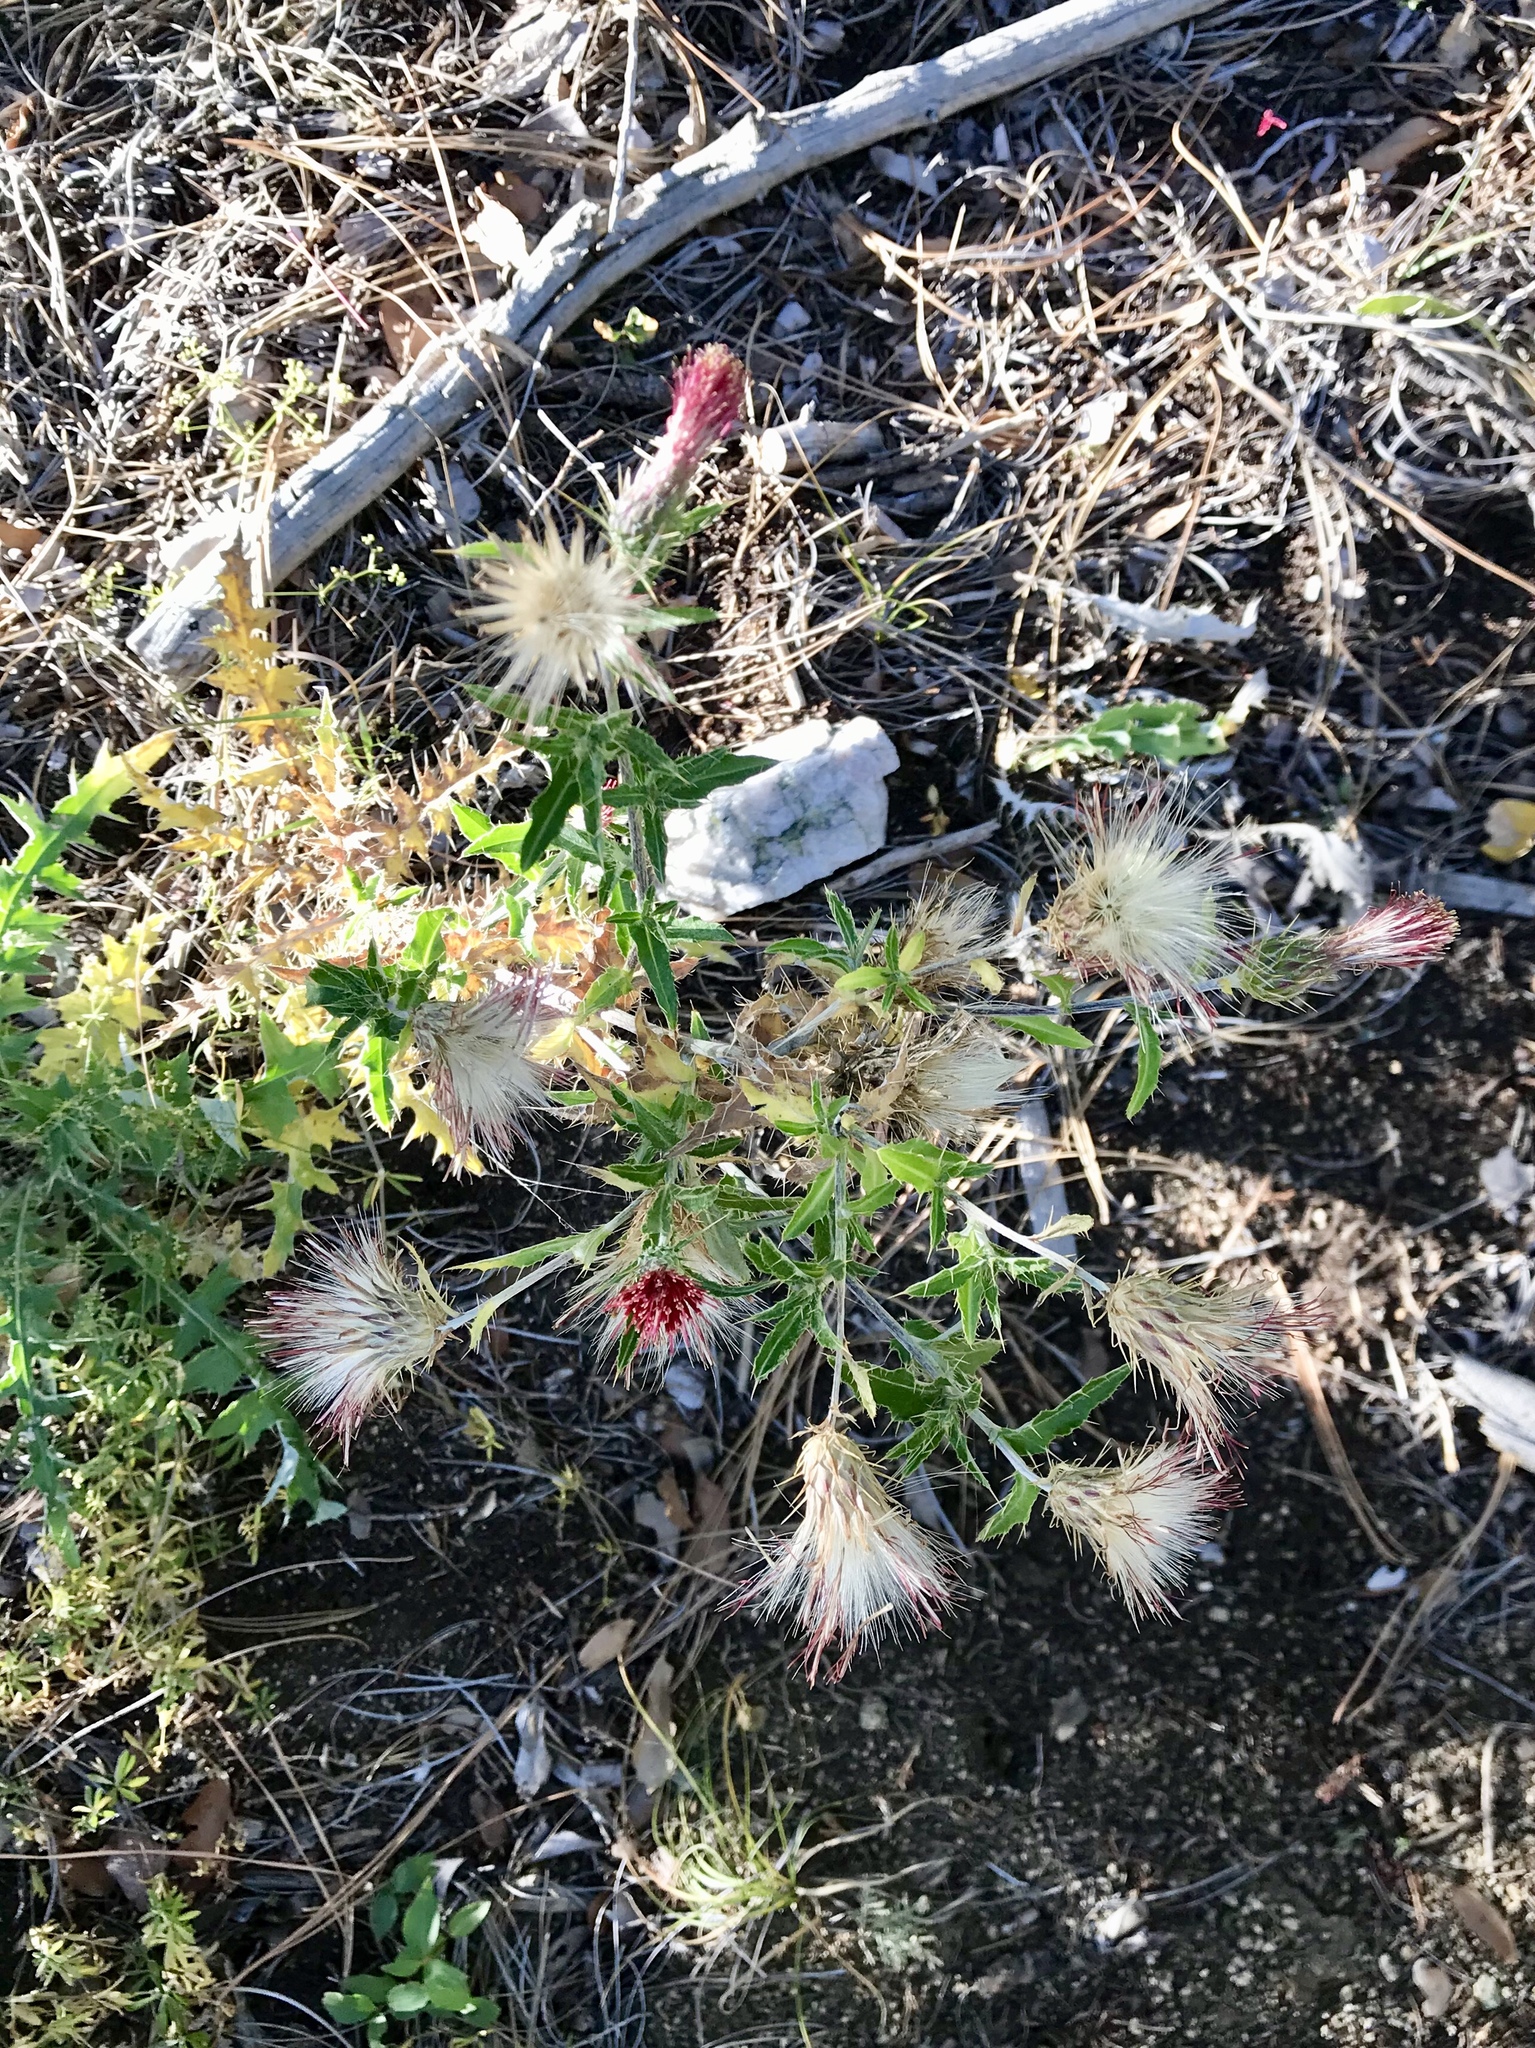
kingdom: Plantae
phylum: Tracheophyta
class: Magnoliopsida
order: Asterales
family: Asteraceae
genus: Cirsium
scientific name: Cirsium arizonicum
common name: Arizona thistle
